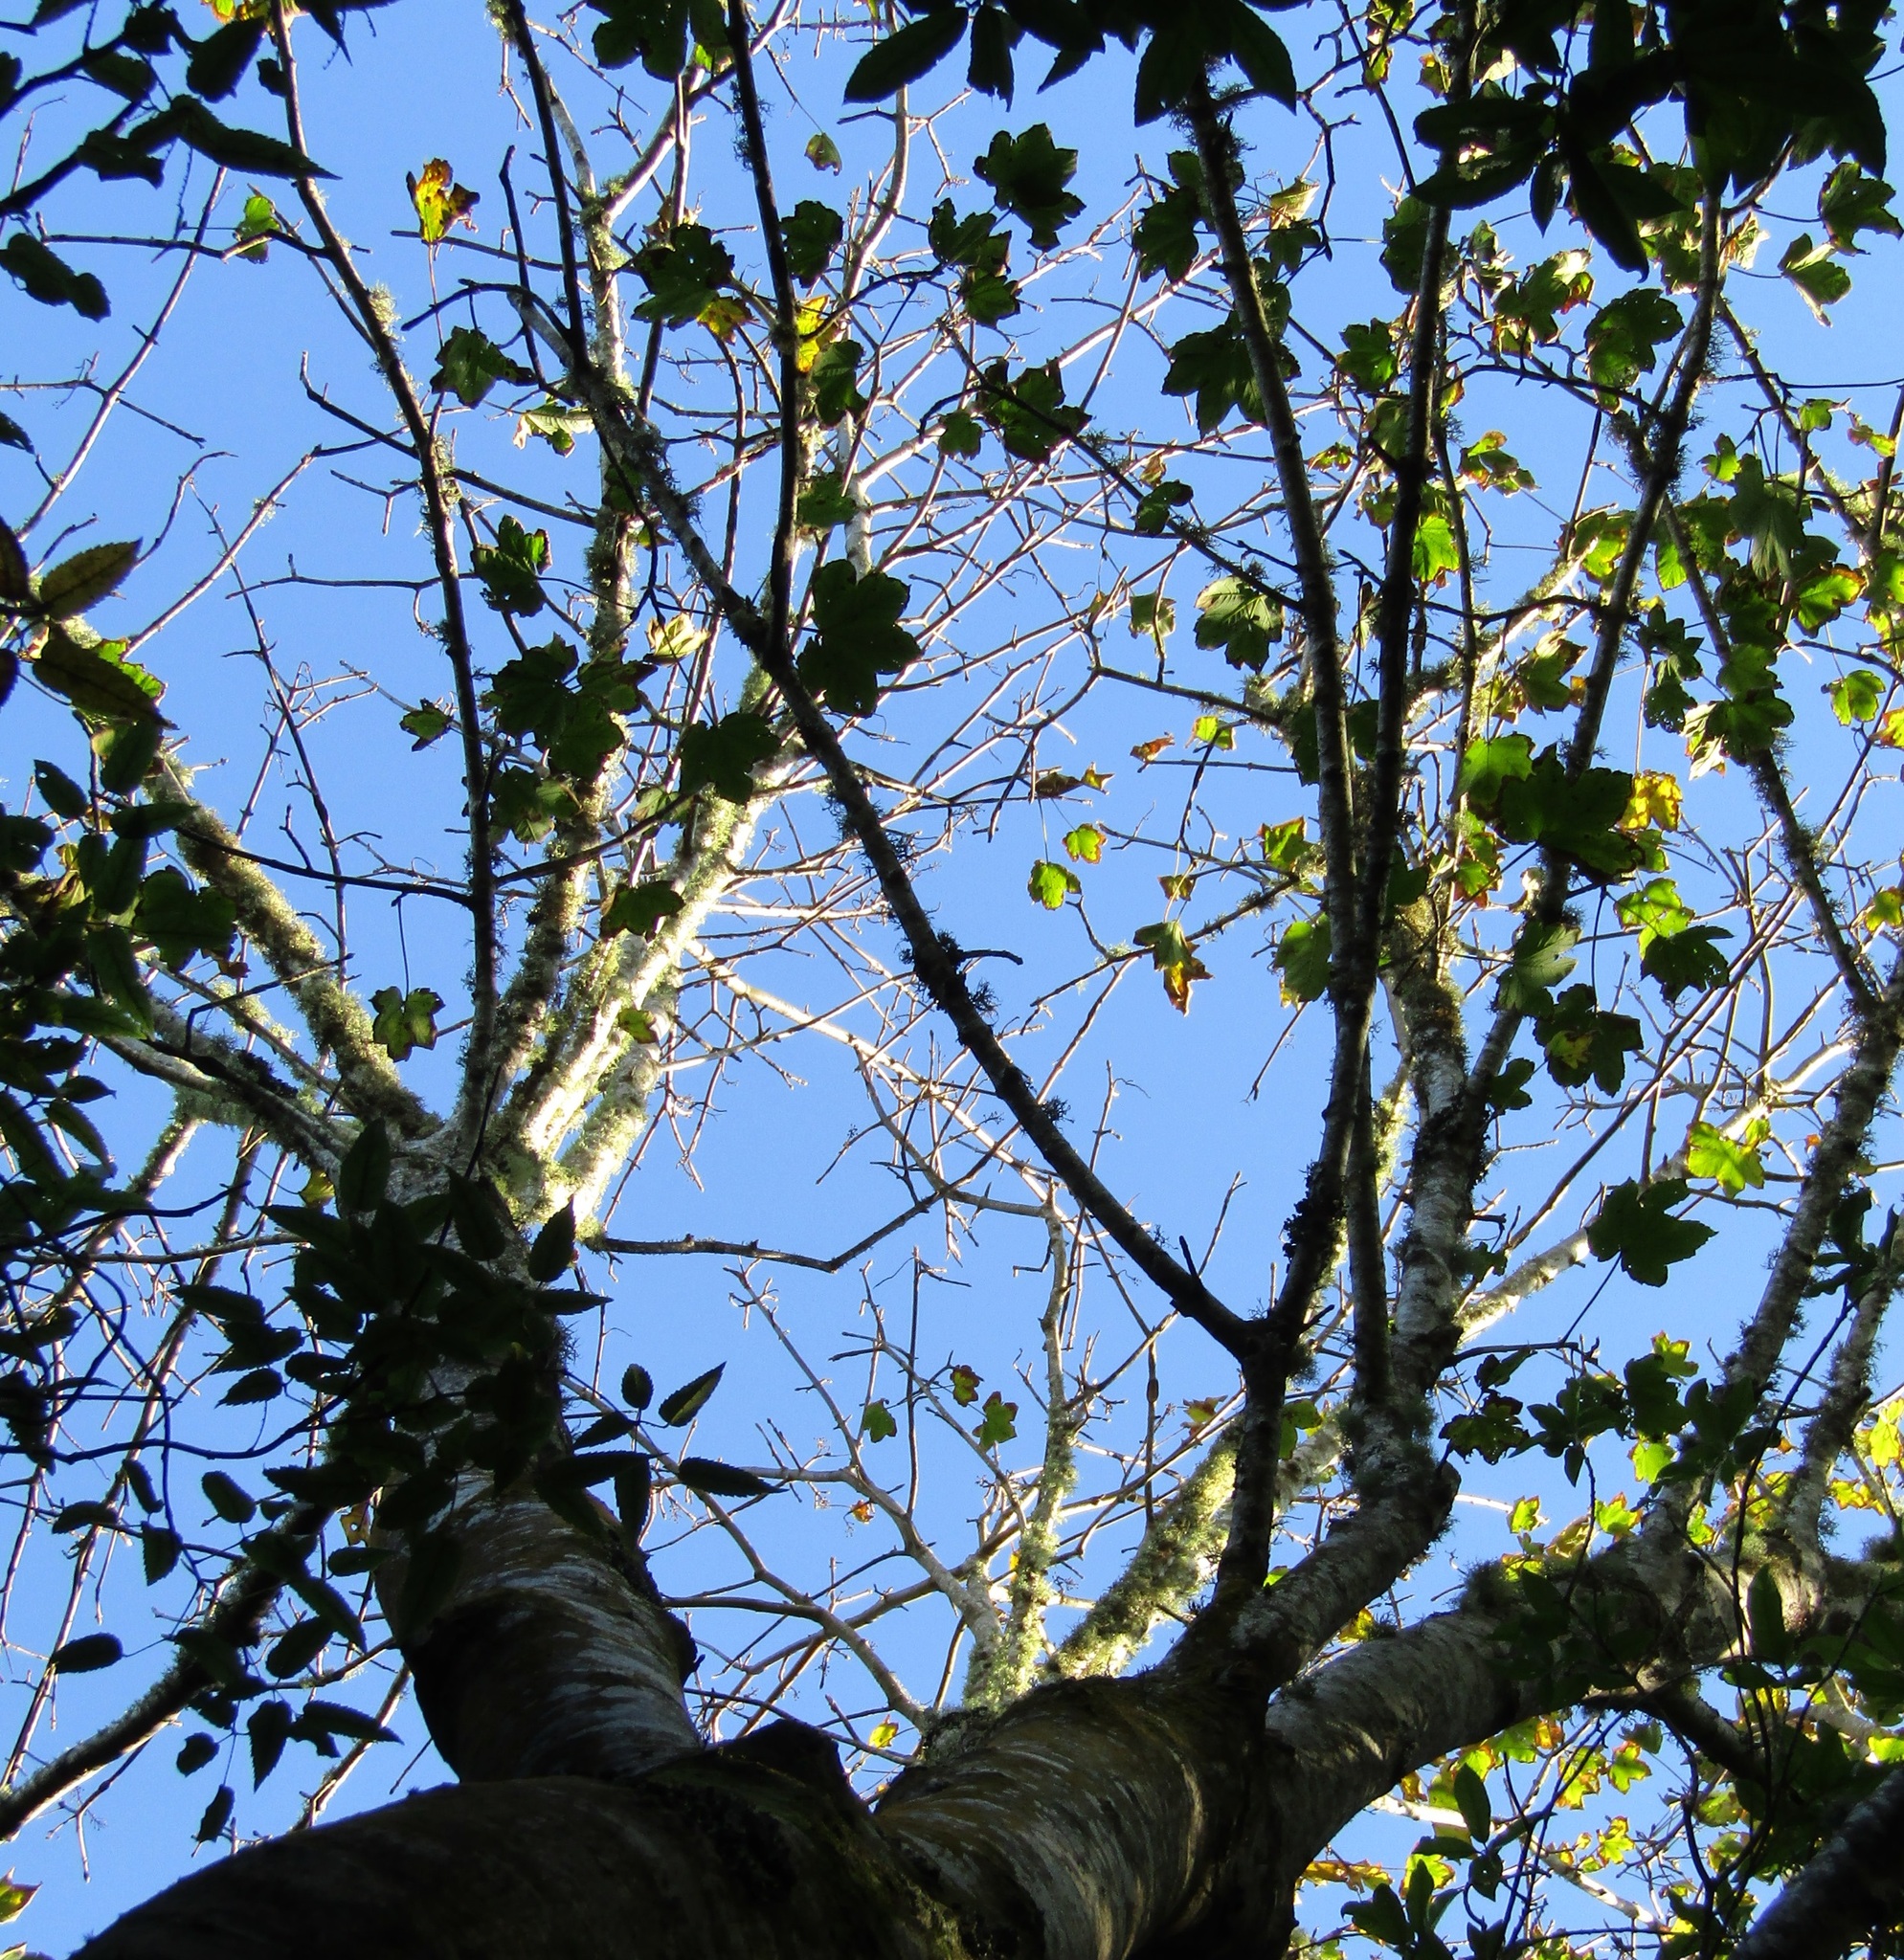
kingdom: Plantae
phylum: Tracheophyta
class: Magnoliopsida
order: Sapindales
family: Sapindaceae
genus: Acer
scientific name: Acer pseudoplatanus
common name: Sycamore
